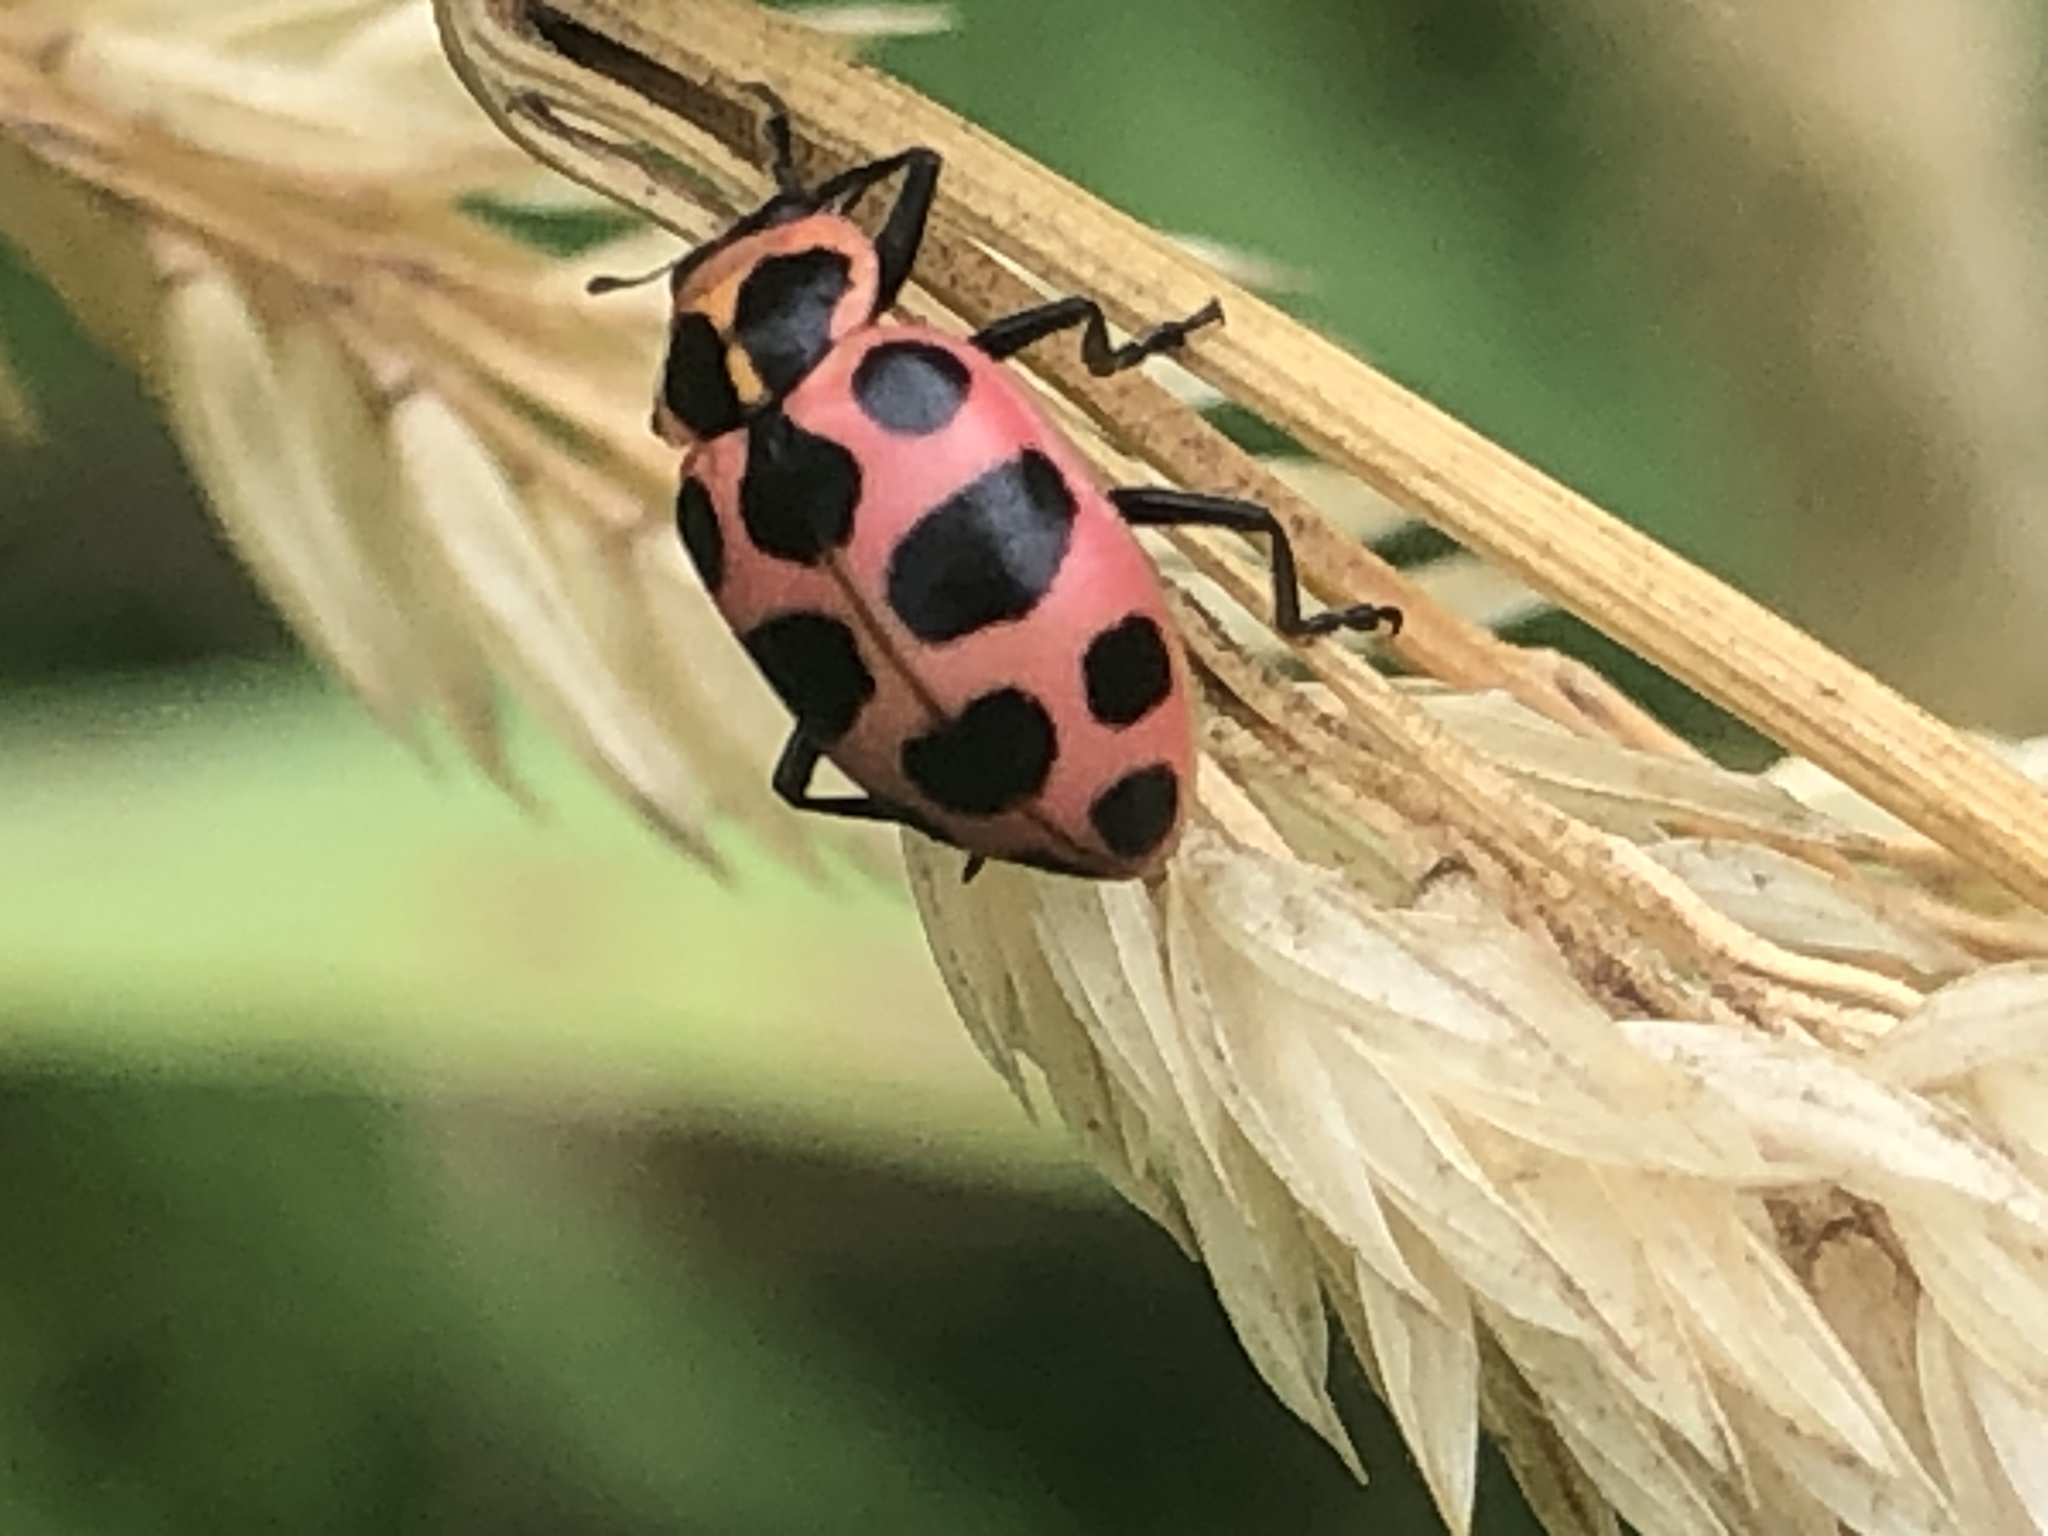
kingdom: Animalia
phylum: Arthropoda
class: Insecta
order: Coleoptera
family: Coccinellidae
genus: Coleomegilla
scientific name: Coleomegilla maculata
